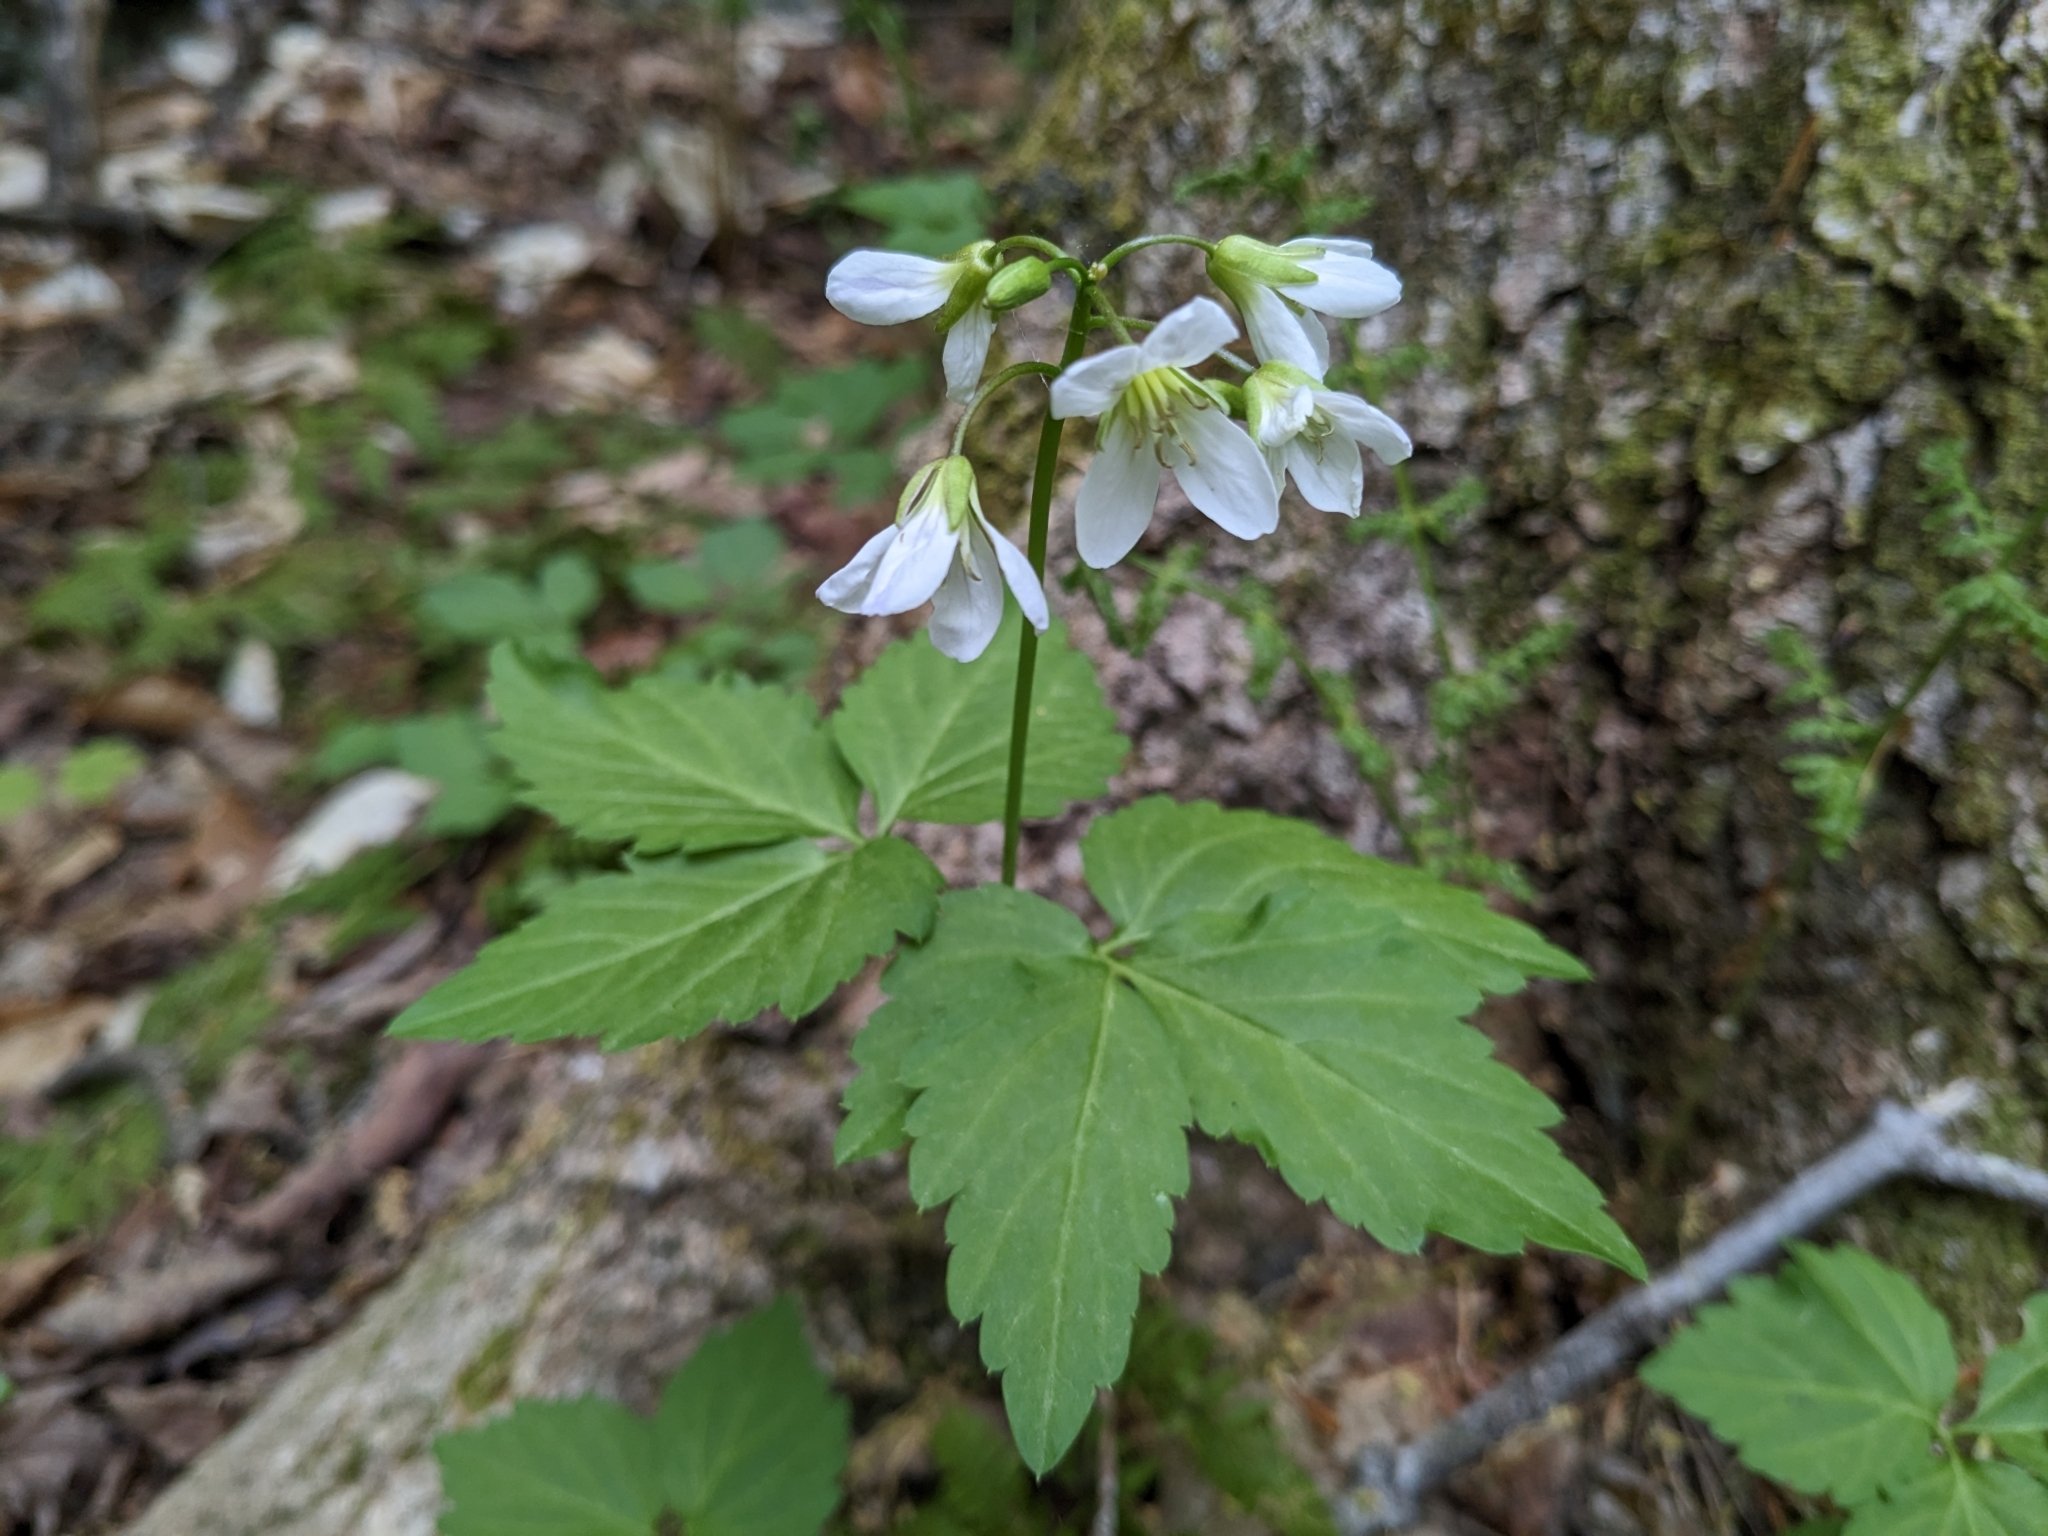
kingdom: Plantae
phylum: Tracheophyta
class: Magnoliopsida
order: Brassicales
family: Brassicaceae
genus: Cardamine
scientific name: Cardamine diphylla
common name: Broad-leaved toothwort
